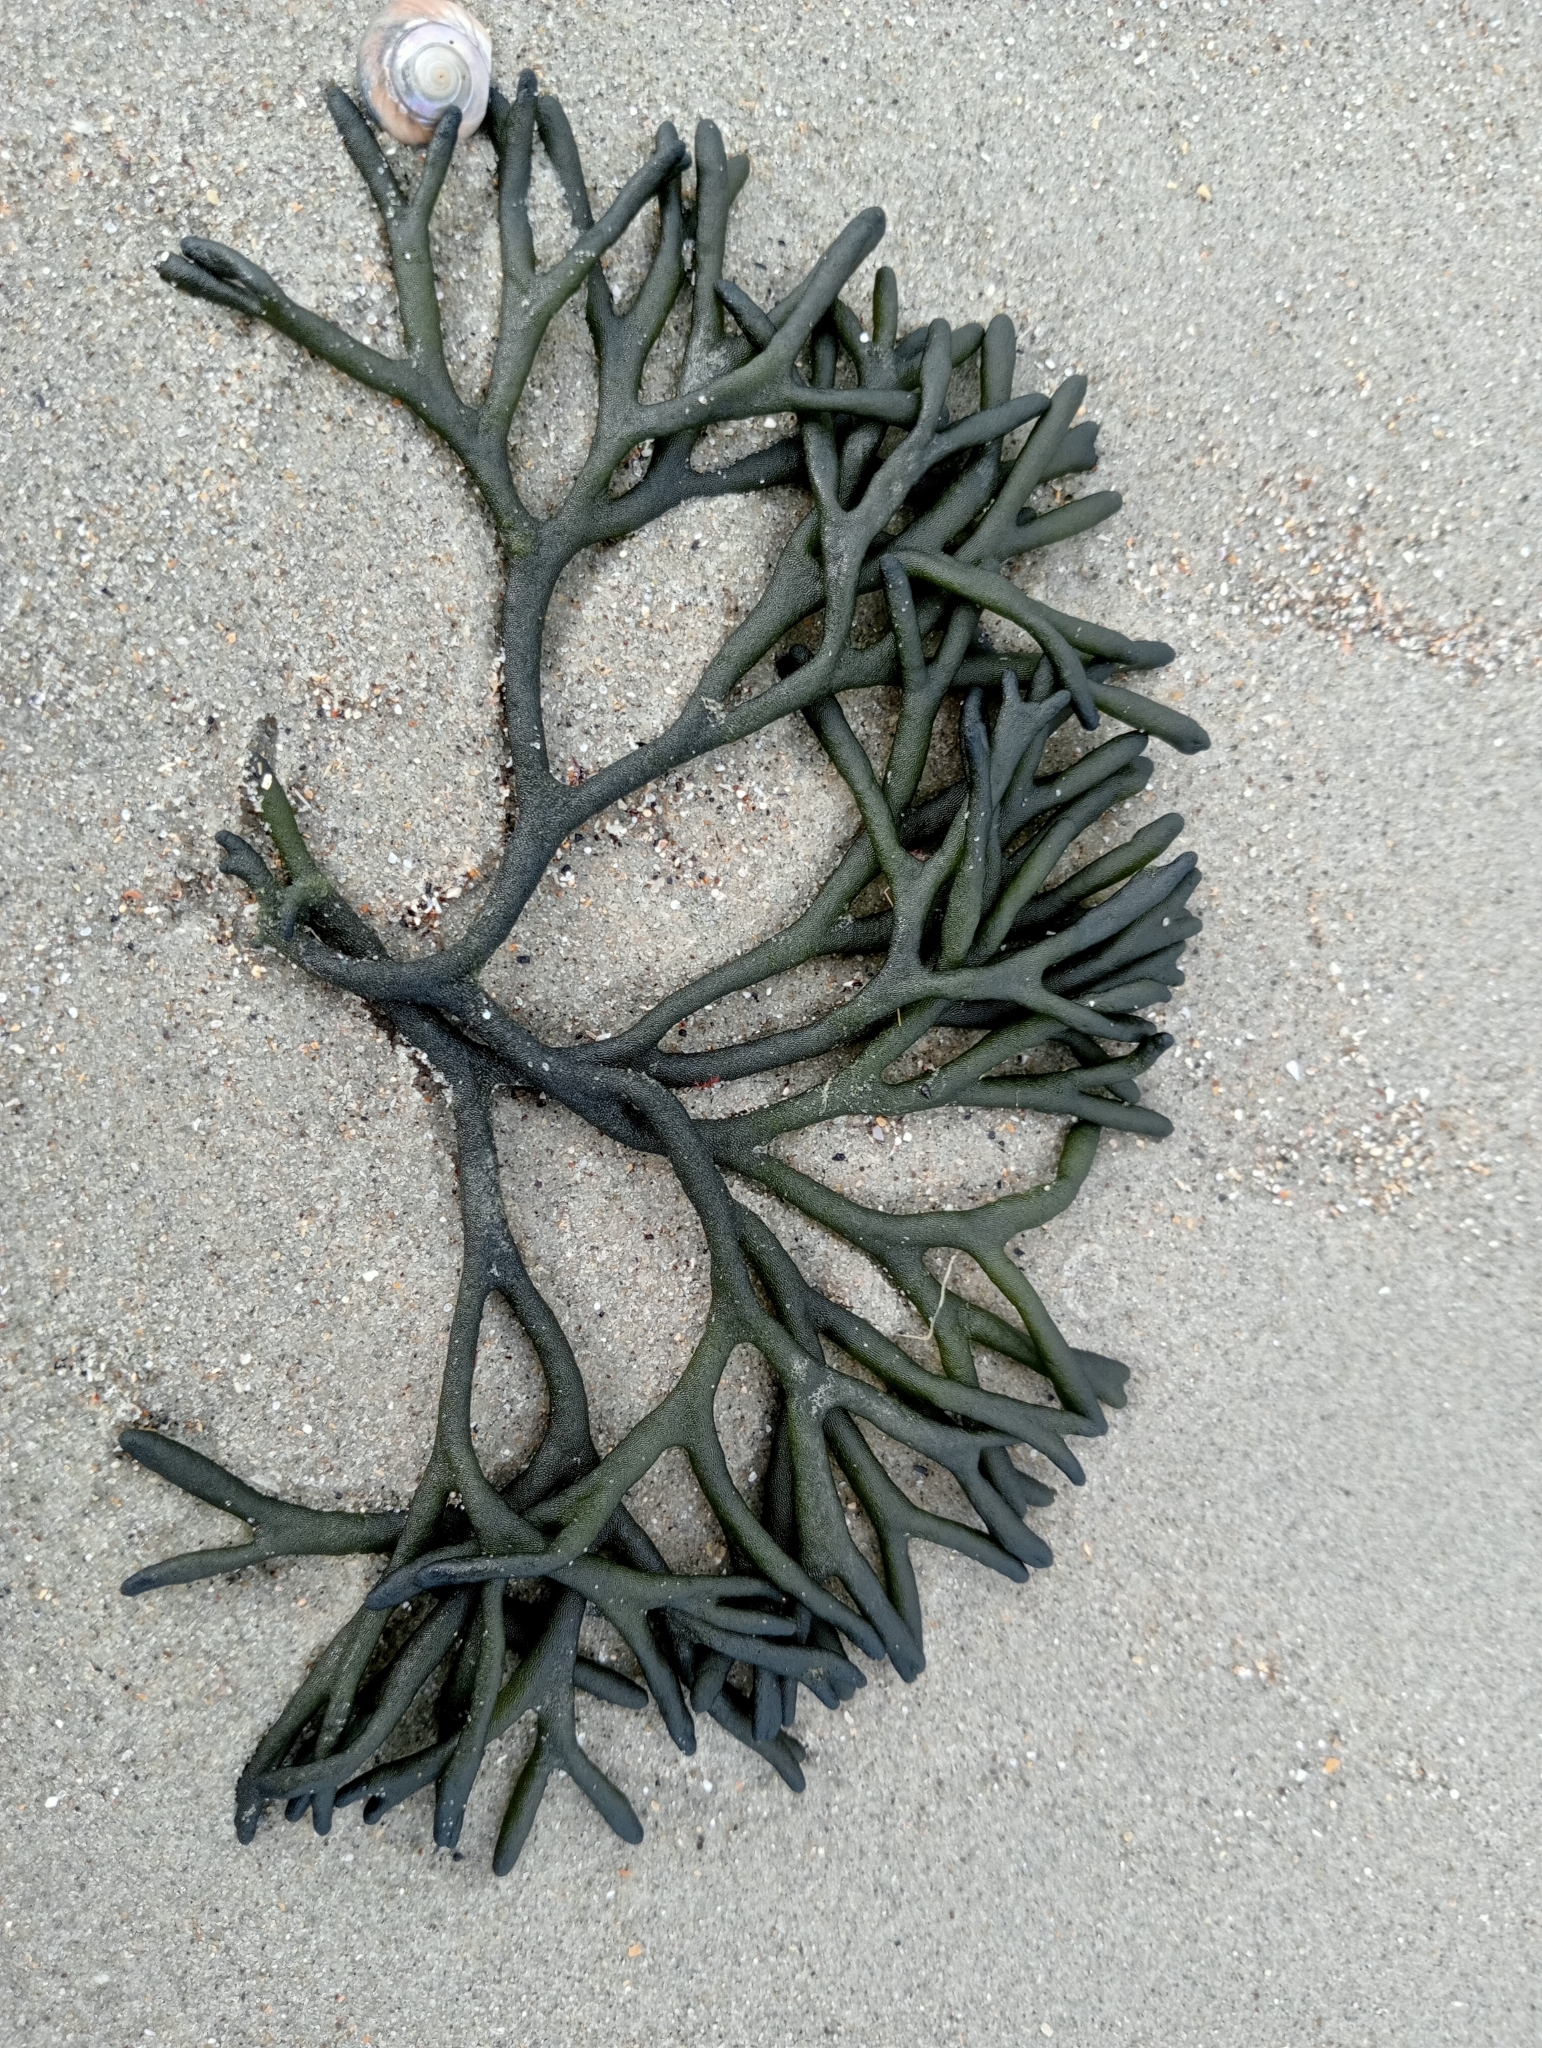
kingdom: Plantae
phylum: Chlorophyta
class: Ulvophyceae
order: Bryopsidales
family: Codiaceae
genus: Codium
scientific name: Codium fragile
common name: Dead man's fingers
